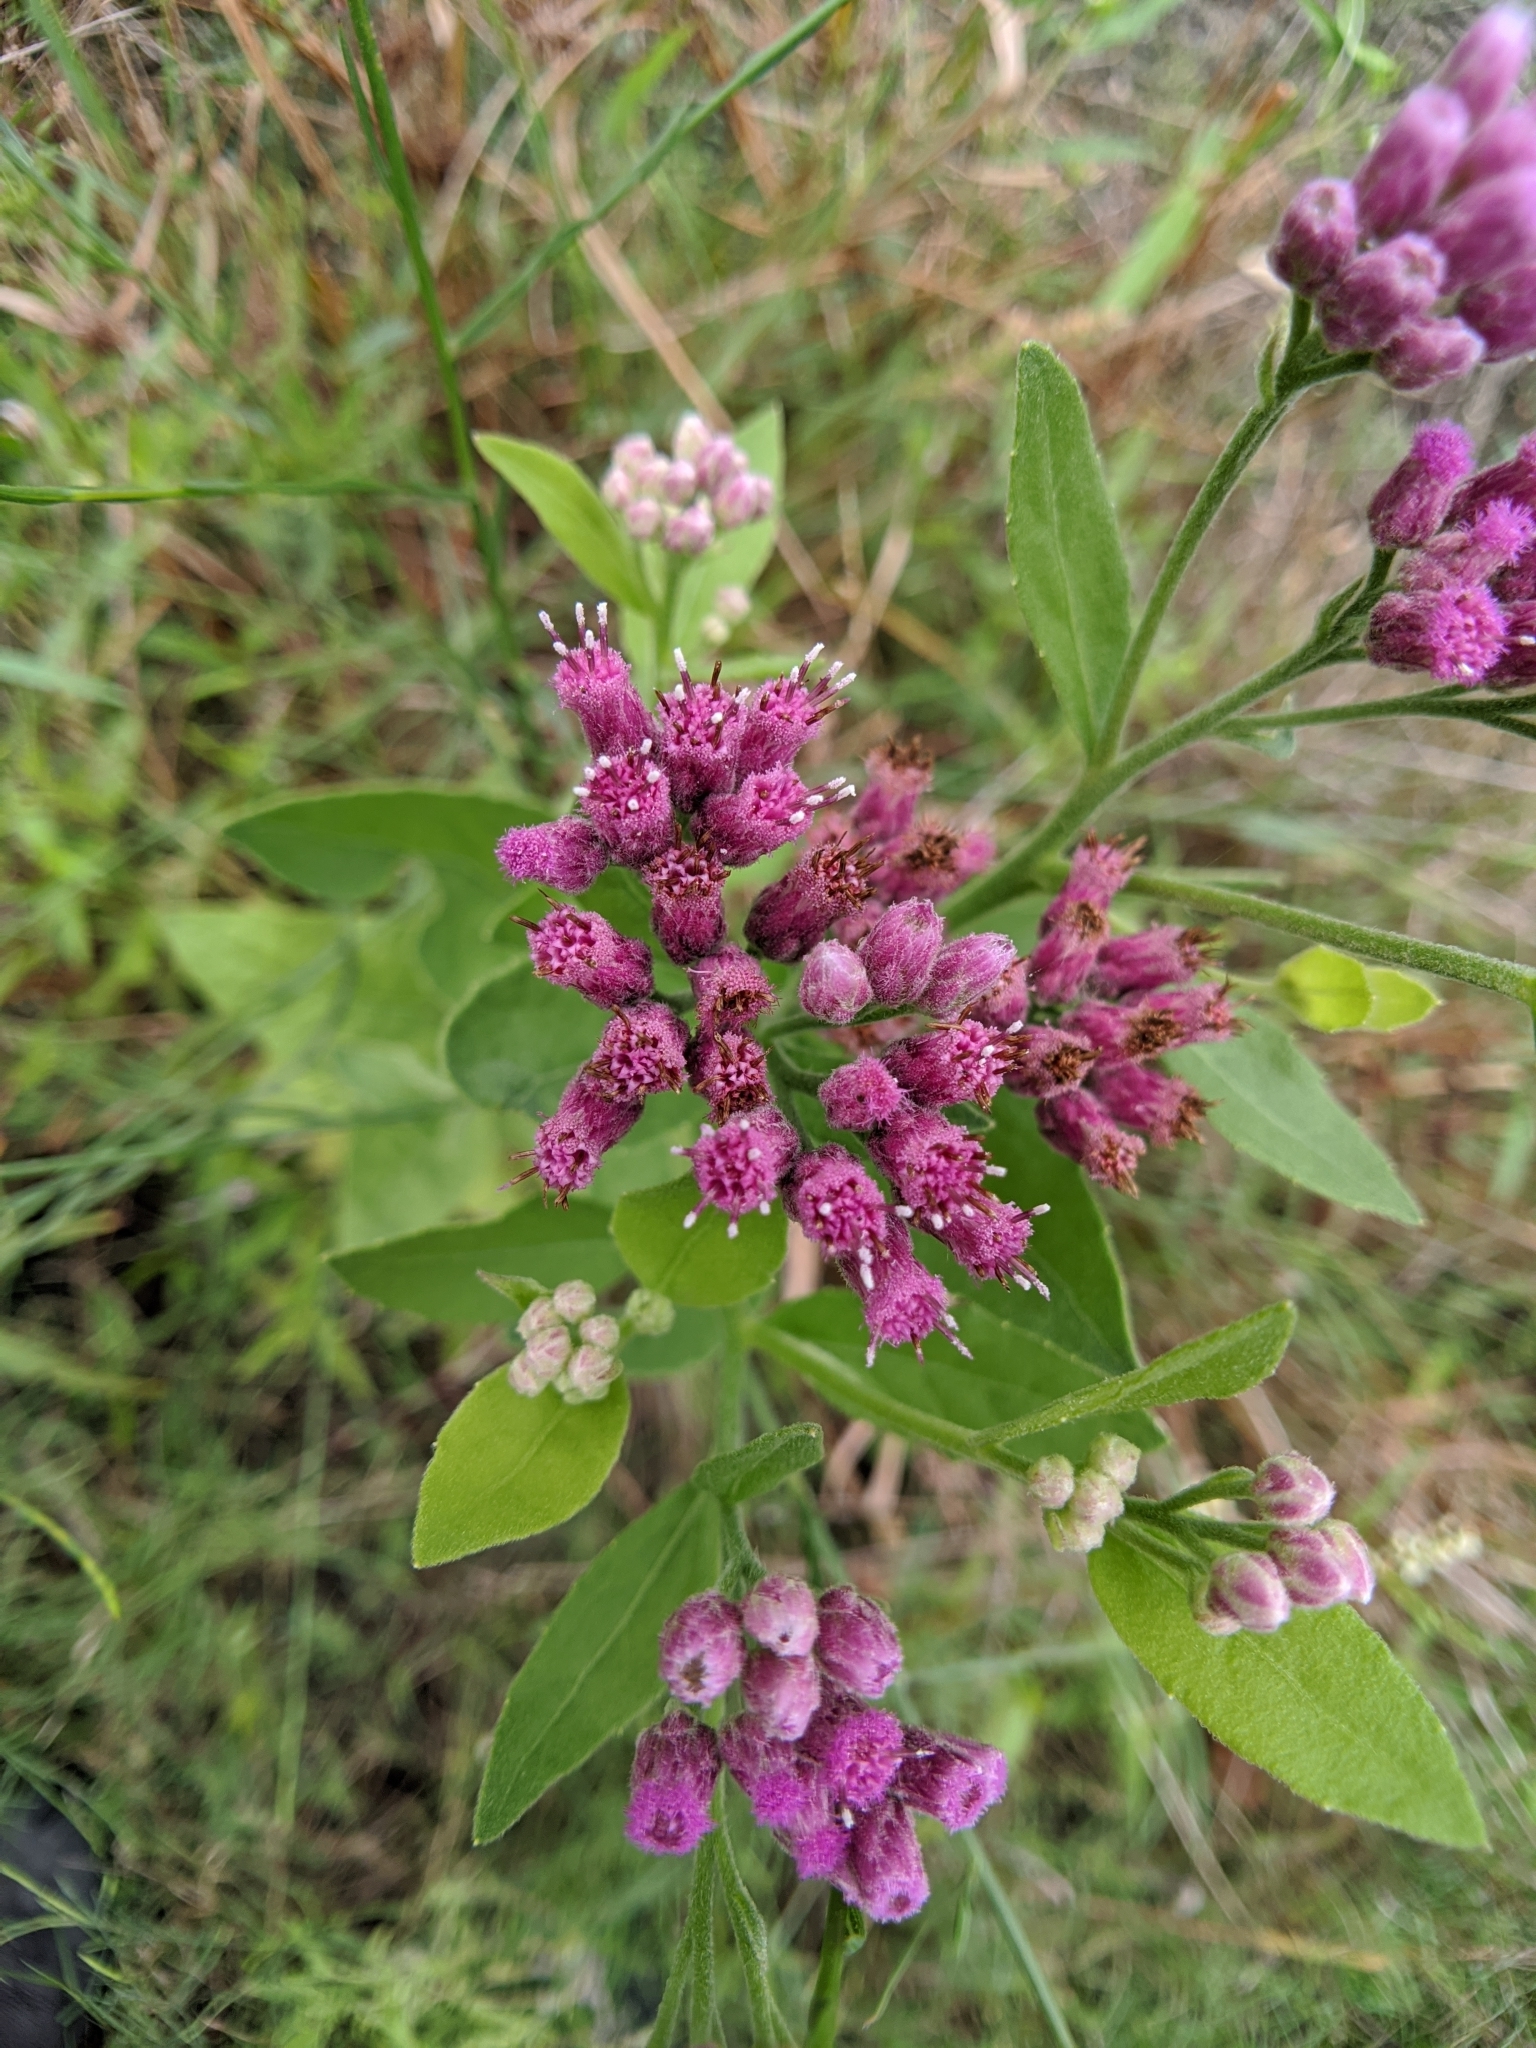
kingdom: Plantae
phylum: Tracheophyta
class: Magnoliopsida
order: Asterales
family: Asteraceae
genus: Pluchea
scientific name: Pluchea odorata
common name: Saltmarsh fleabane
